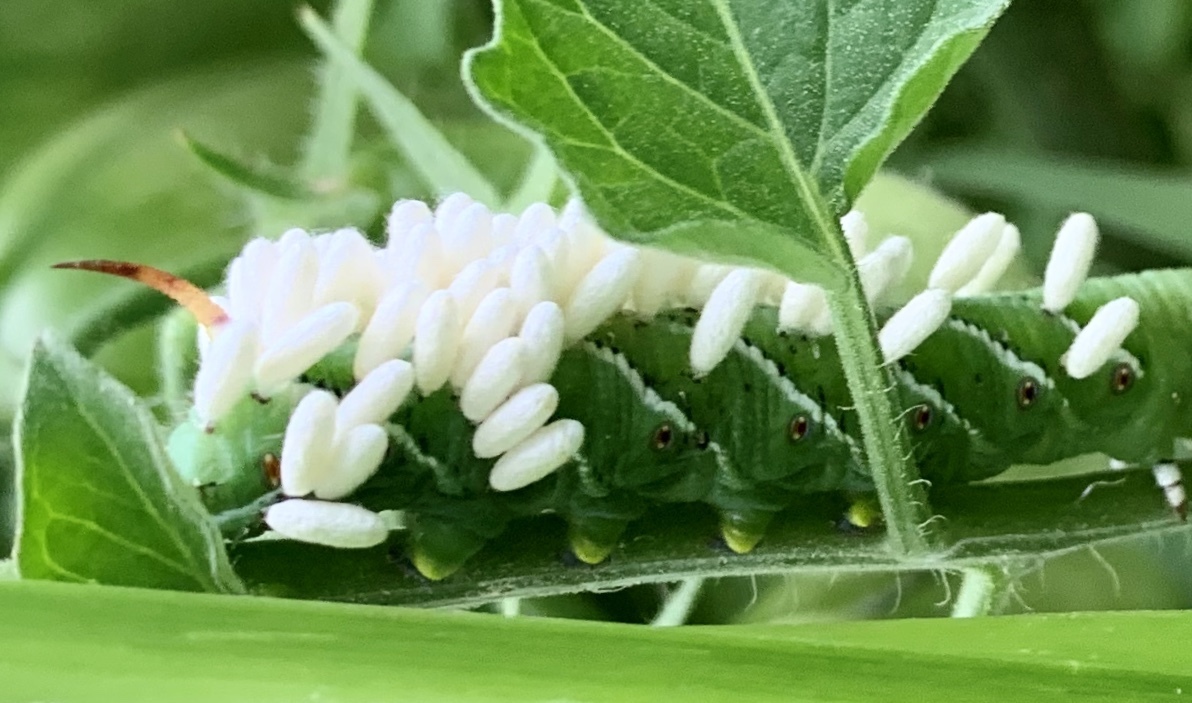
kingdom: Animalia
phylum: Arthropoda
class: Insecta
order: Hymenoptera
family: Braconidae
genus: Cotesia
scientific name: Cotesia congregata
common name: Hornworm parasitoid wasp
